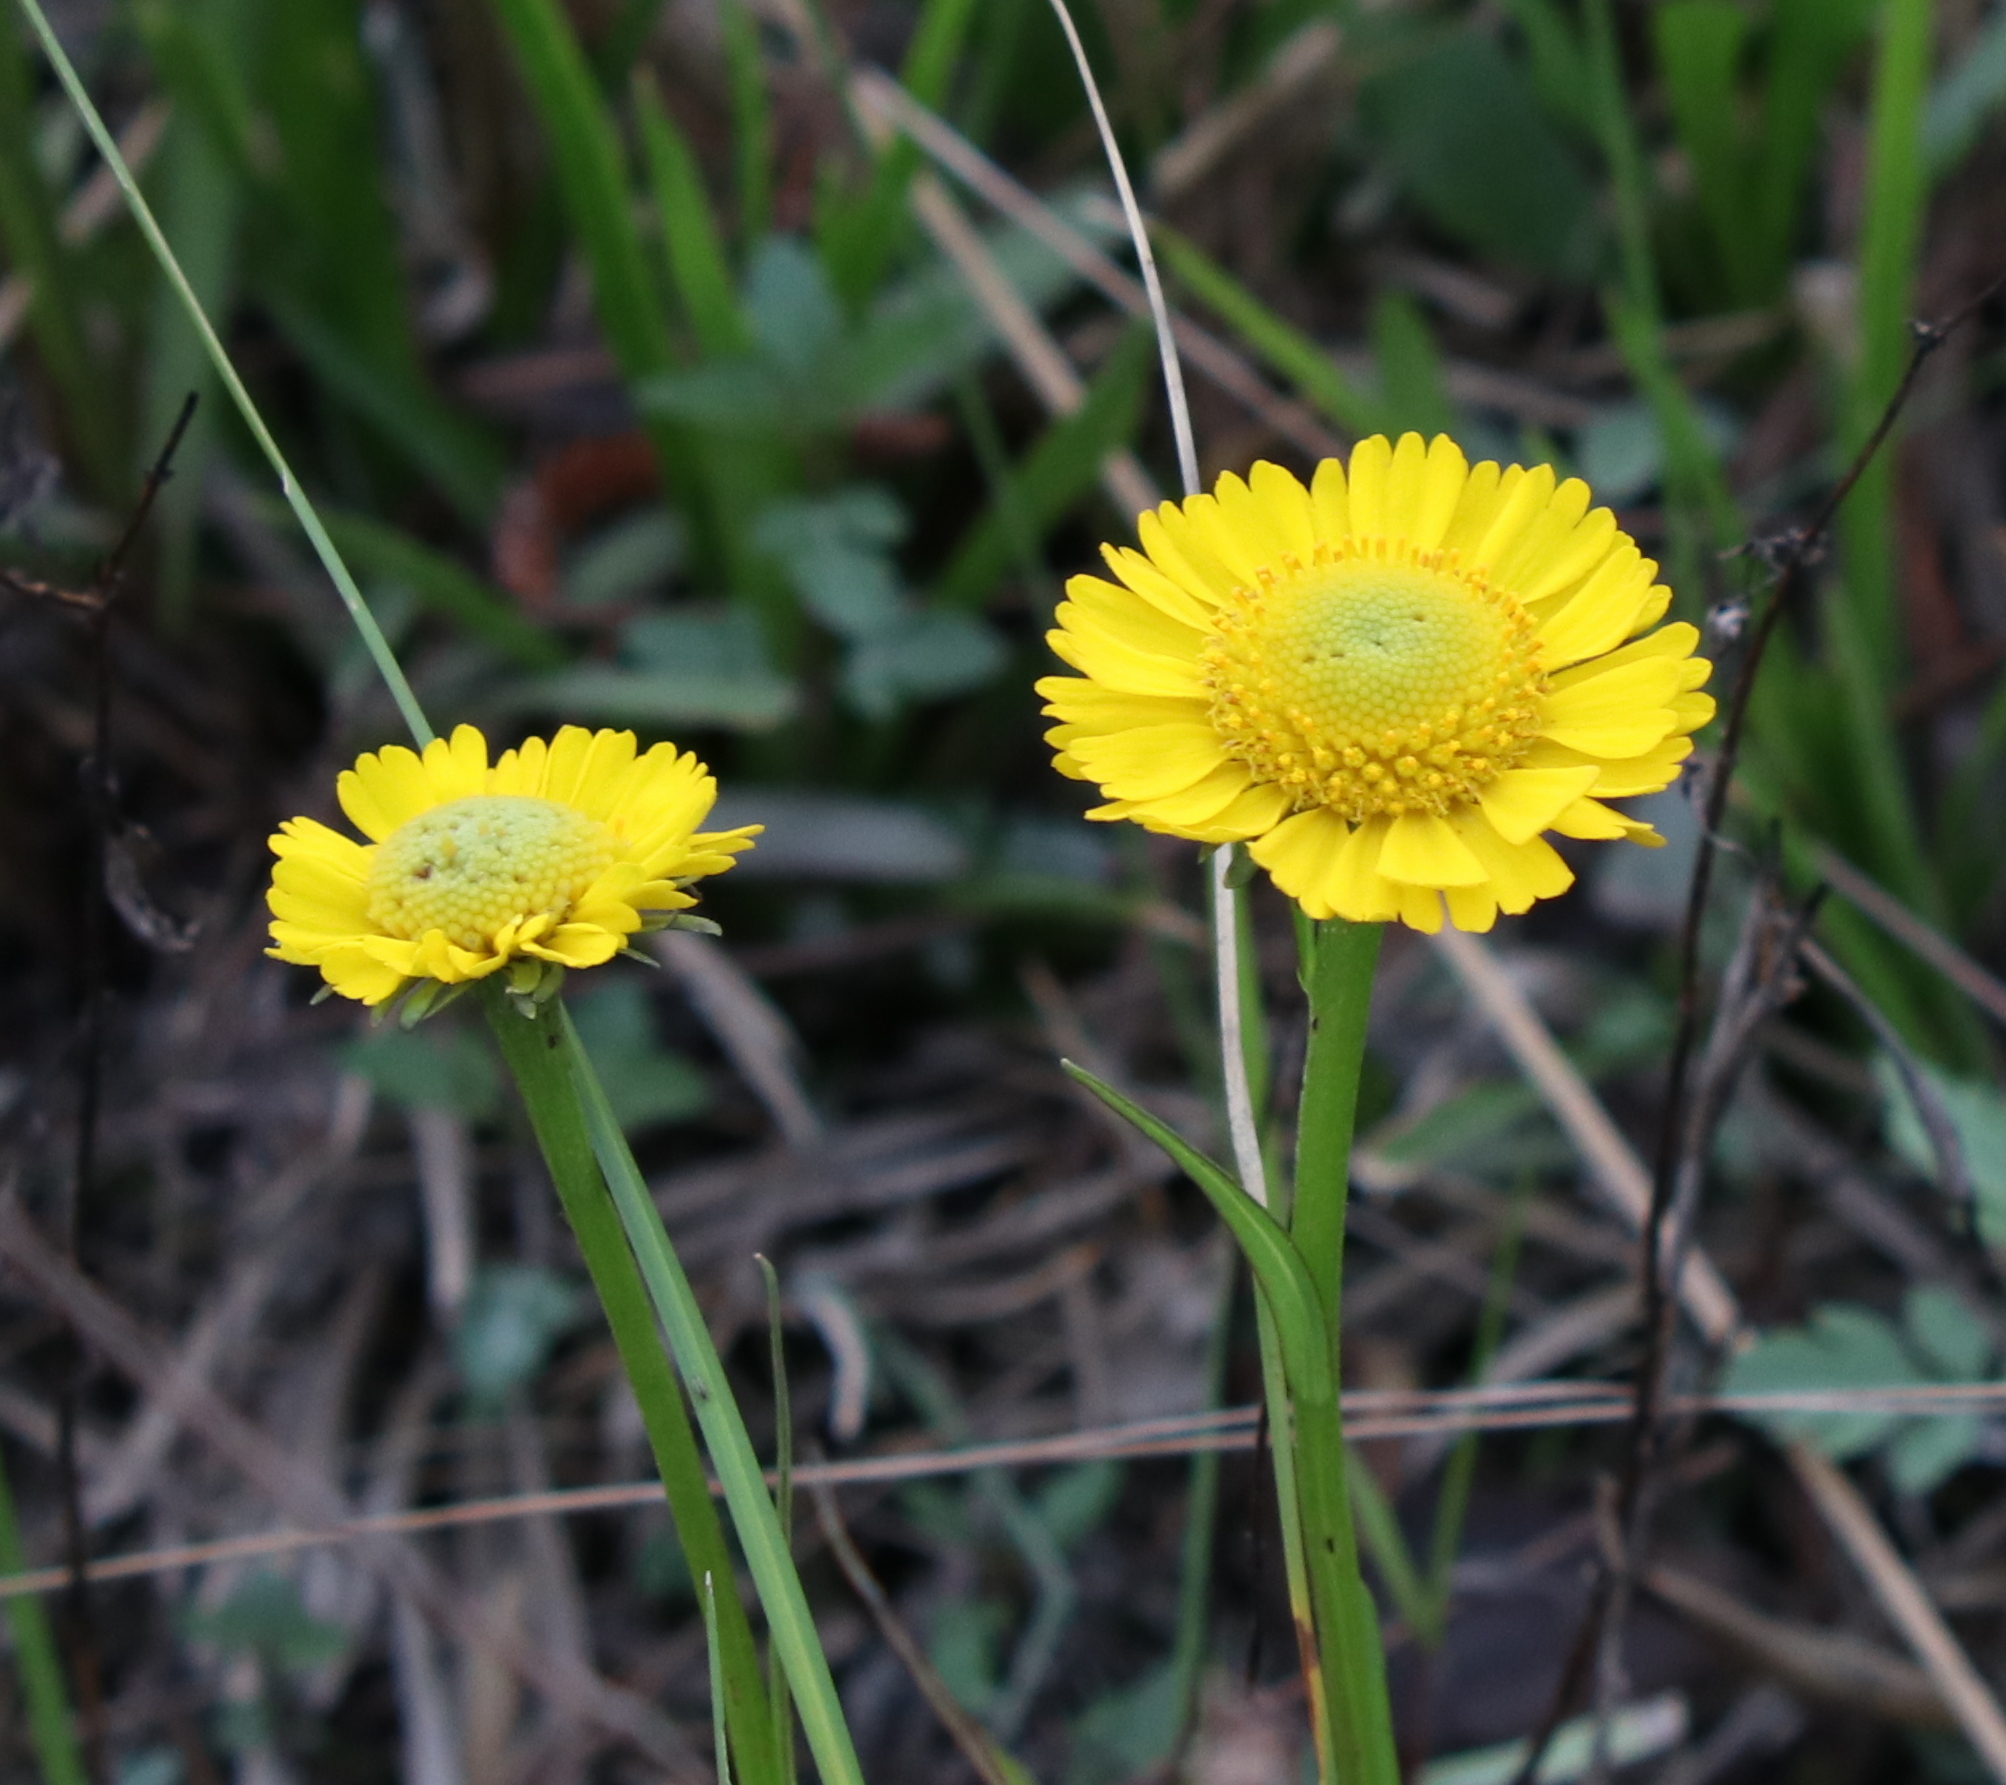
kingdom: Plantae
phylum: Tracheophyta
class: Magnoliopsida
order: Asterales
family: Asteraceae
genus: Helenium
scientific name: Helenium vernale
